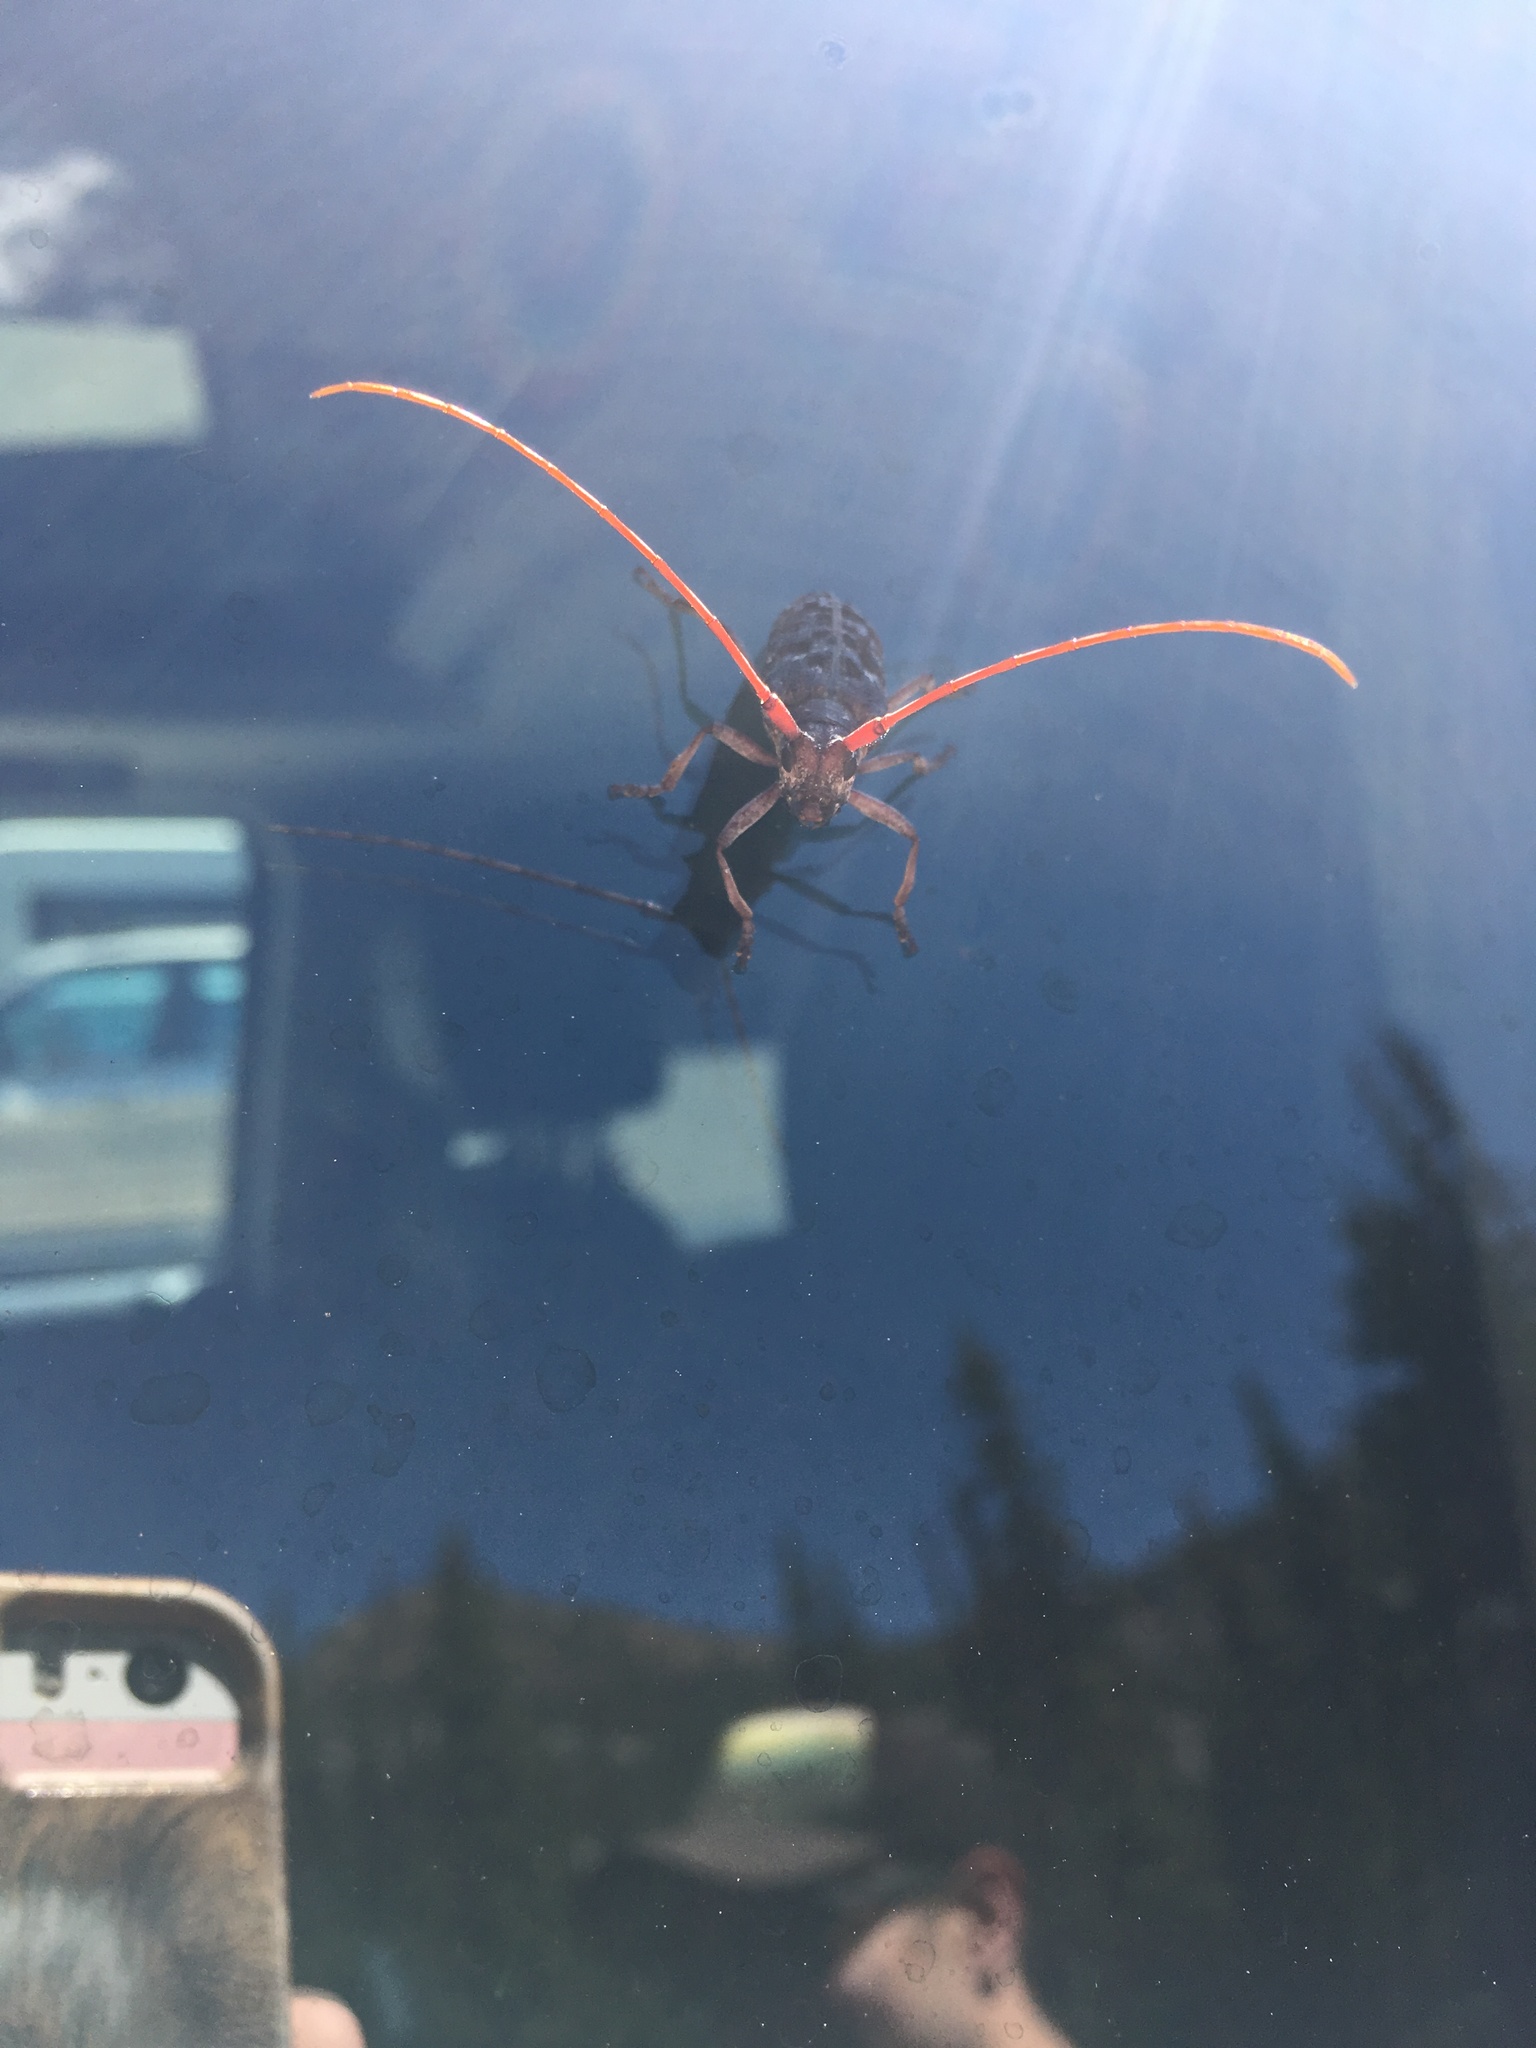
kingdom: Animalia
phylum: Arthropoda
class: Insecta
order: Coleoptera
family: Cerambycidae
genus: Monochamus
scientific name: Monochamus obtusus
